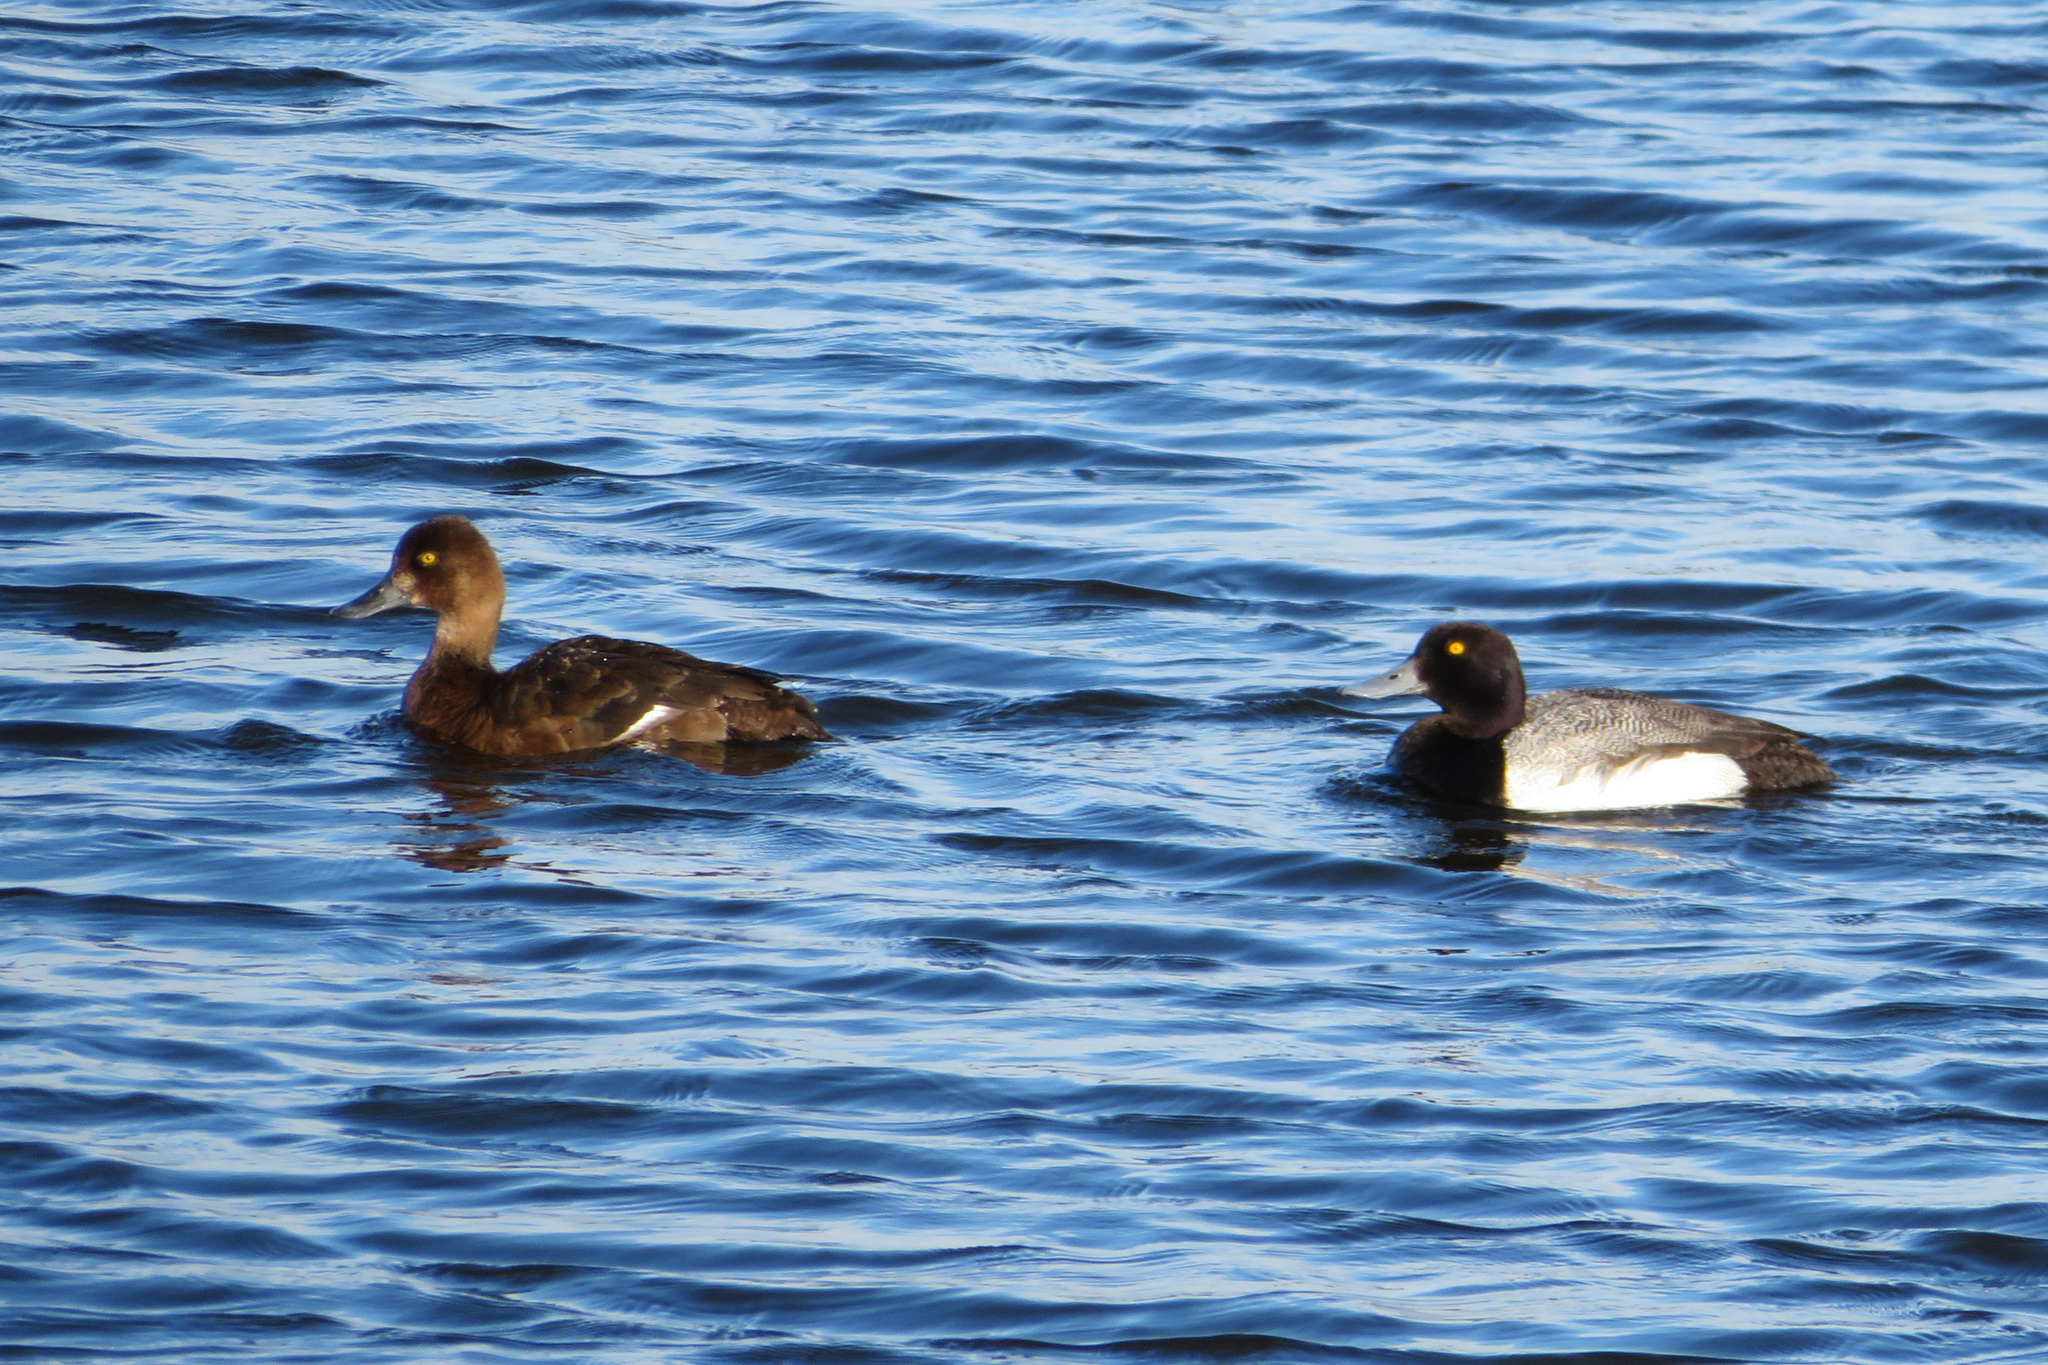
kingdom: Animalia
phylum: Chordata
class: Aves
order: Anseriformes
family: Anatidae
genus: Aythya
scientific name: Aythya affinis
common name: Lesser scaup
